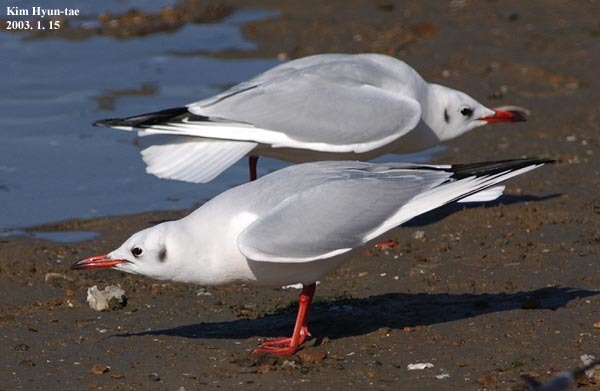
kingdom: Animalia
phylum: Chordata
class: Aves
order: Charadriiformes
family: Laridae
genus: Chroicocephalus
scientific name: Chroicocephalus ridibundus
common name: Black-headed gull
